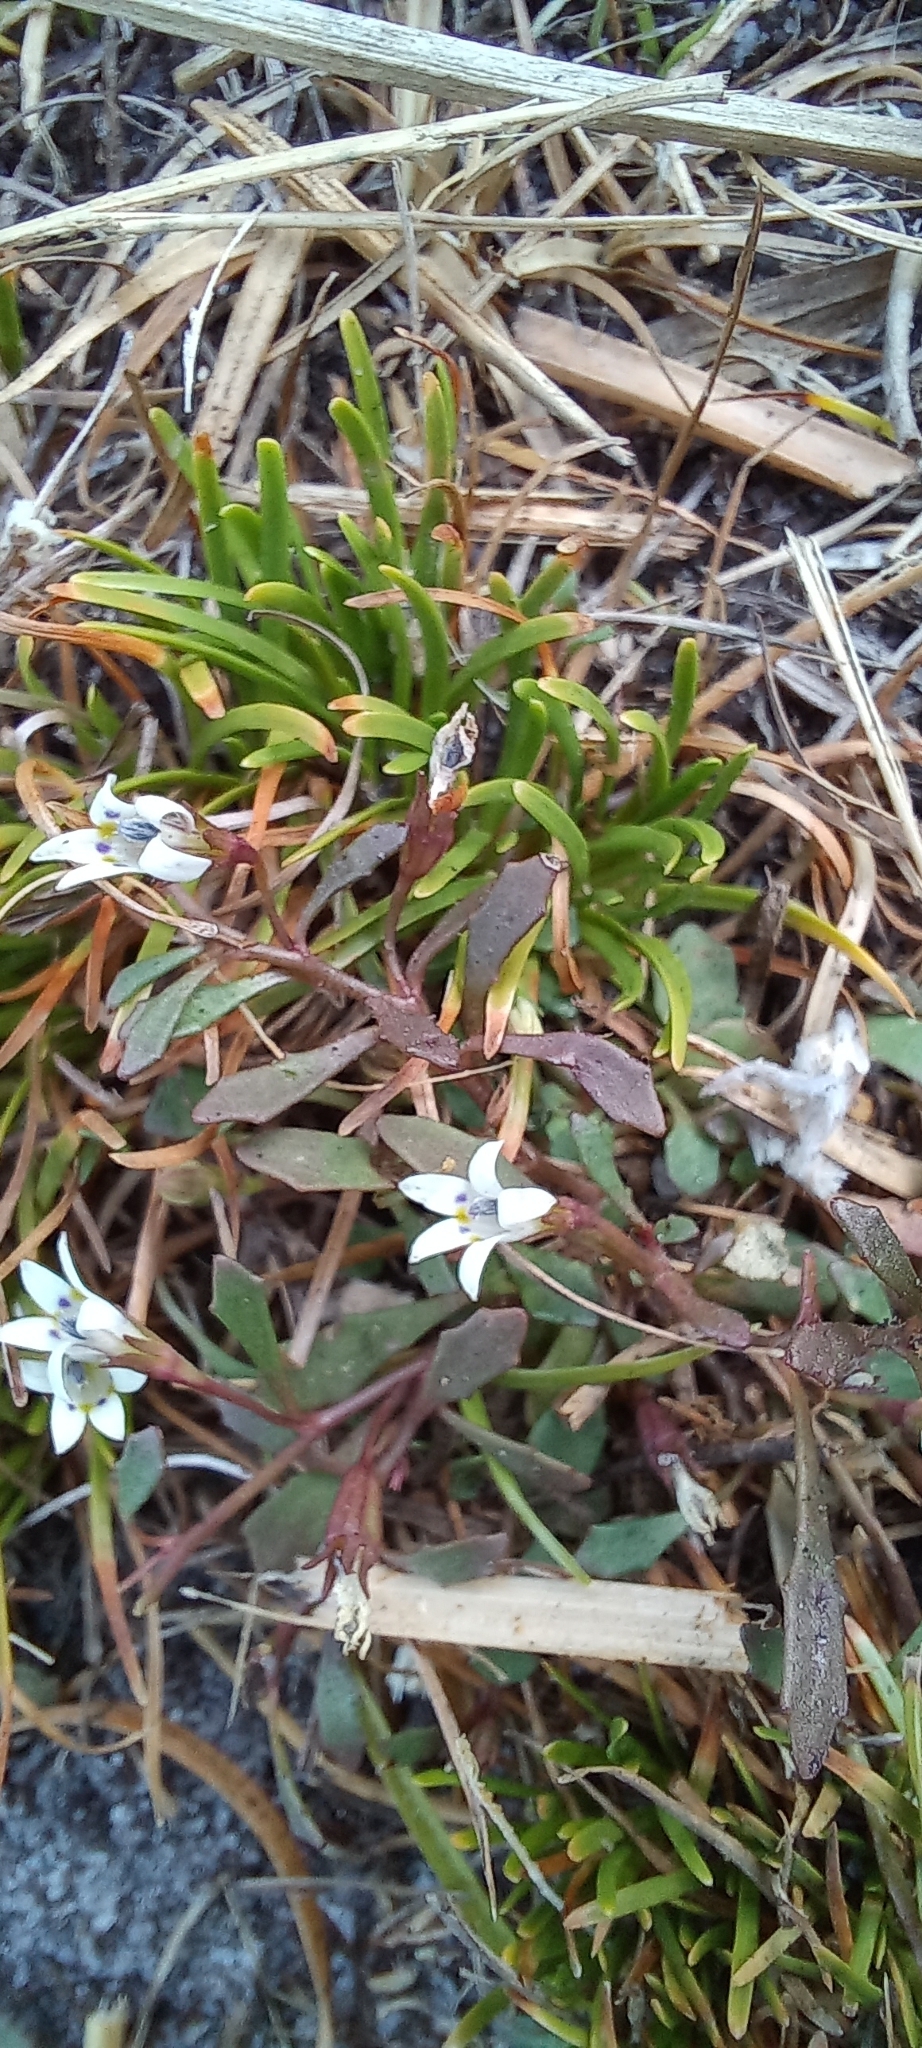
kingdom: Plantae
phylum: Tracheophyta
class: Magnoliopsida
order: Asterales
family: Campanulaceae
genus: Wimmerella
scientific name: Wimmerella secunda
